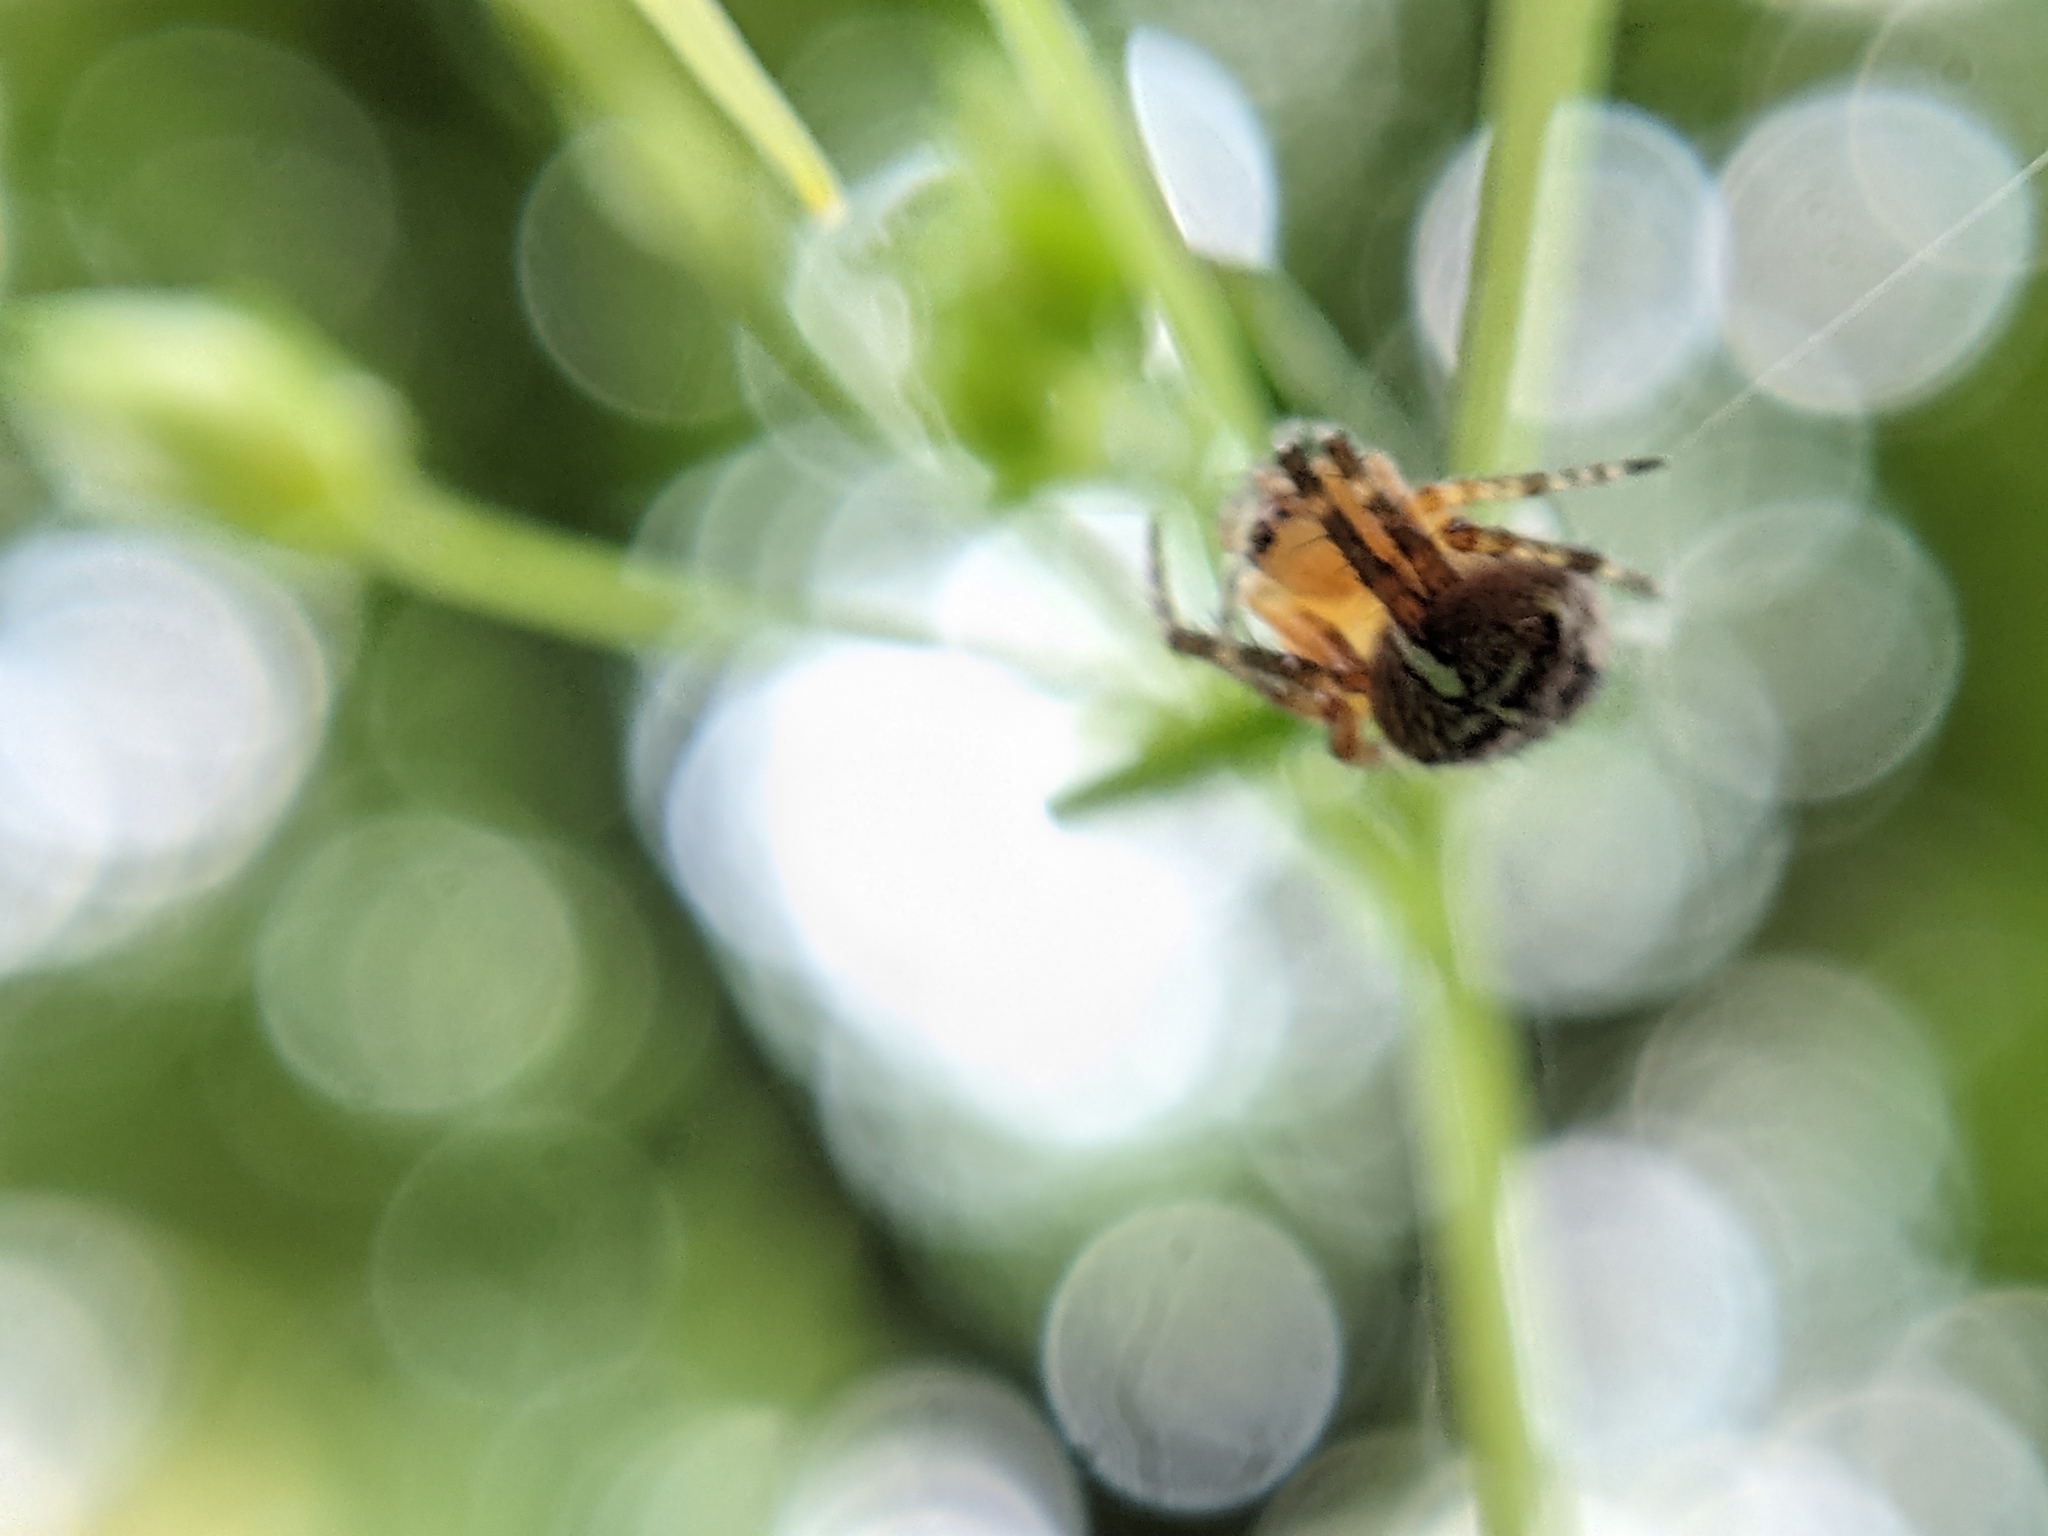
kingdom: Animalia
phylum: Arthropoda
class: Arachnida
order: Araneae
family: Araneidae
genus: Araneus
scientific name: Araneus diadematus
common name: Cross orbweaver
